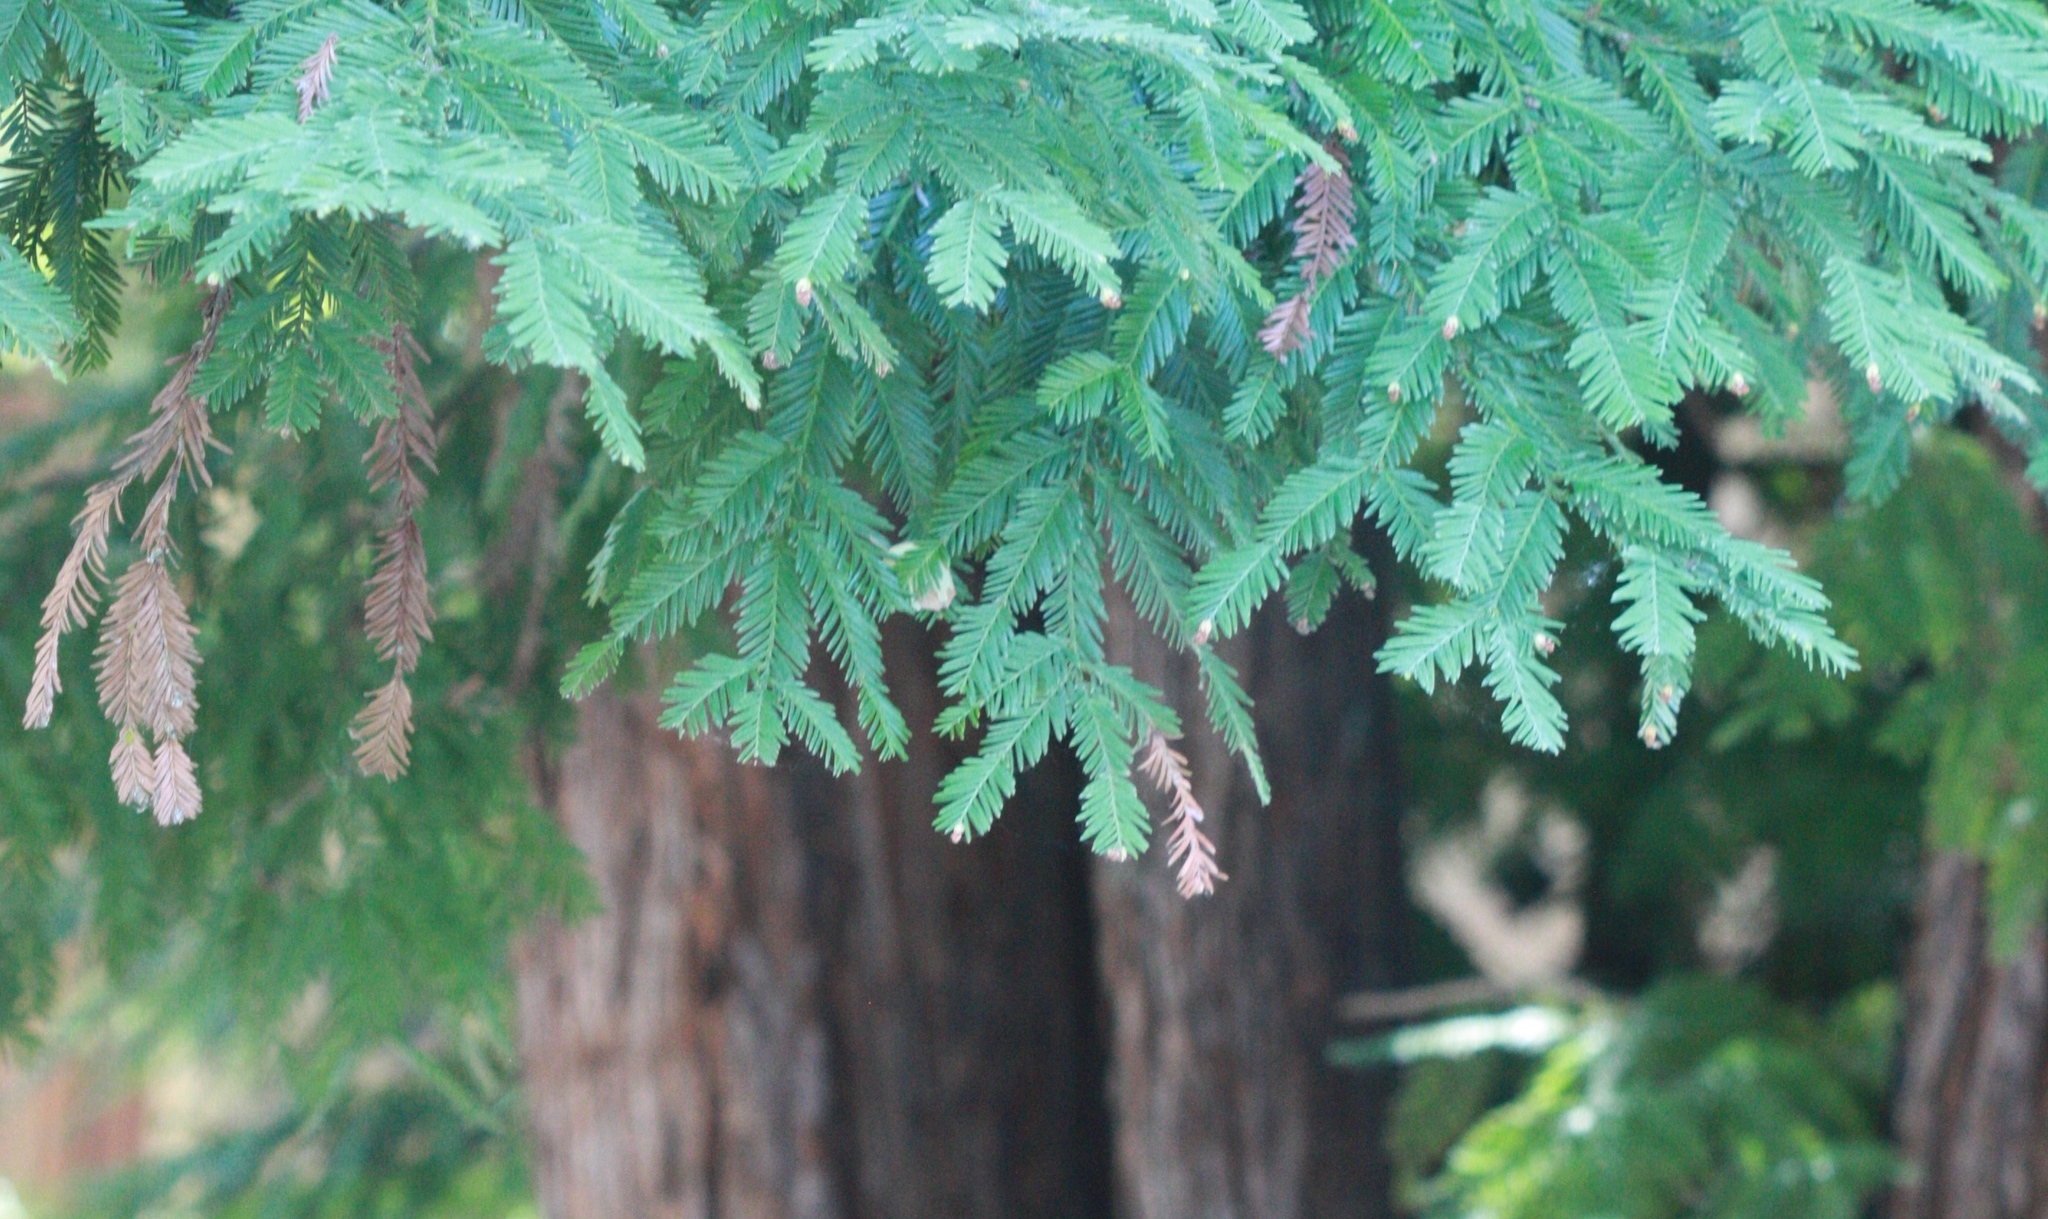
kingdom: Plantae
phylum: Tracheophyta
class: Pinopsida
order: Pinales
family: Cupressaceae
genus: Sequoia
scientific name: Sequoia sempervirens
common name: Coast redwood
